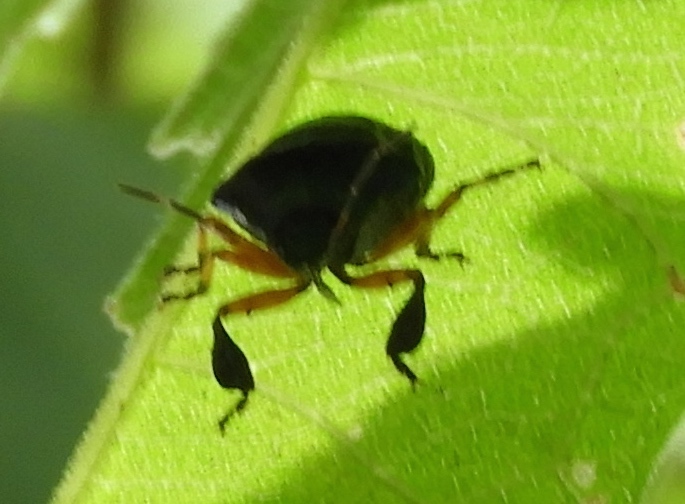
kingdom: Animalia
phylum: Arthropoda
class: Insecta
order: Hemiptera
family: Pentatomidae
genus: Stiretrus
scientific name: Stiretrus
